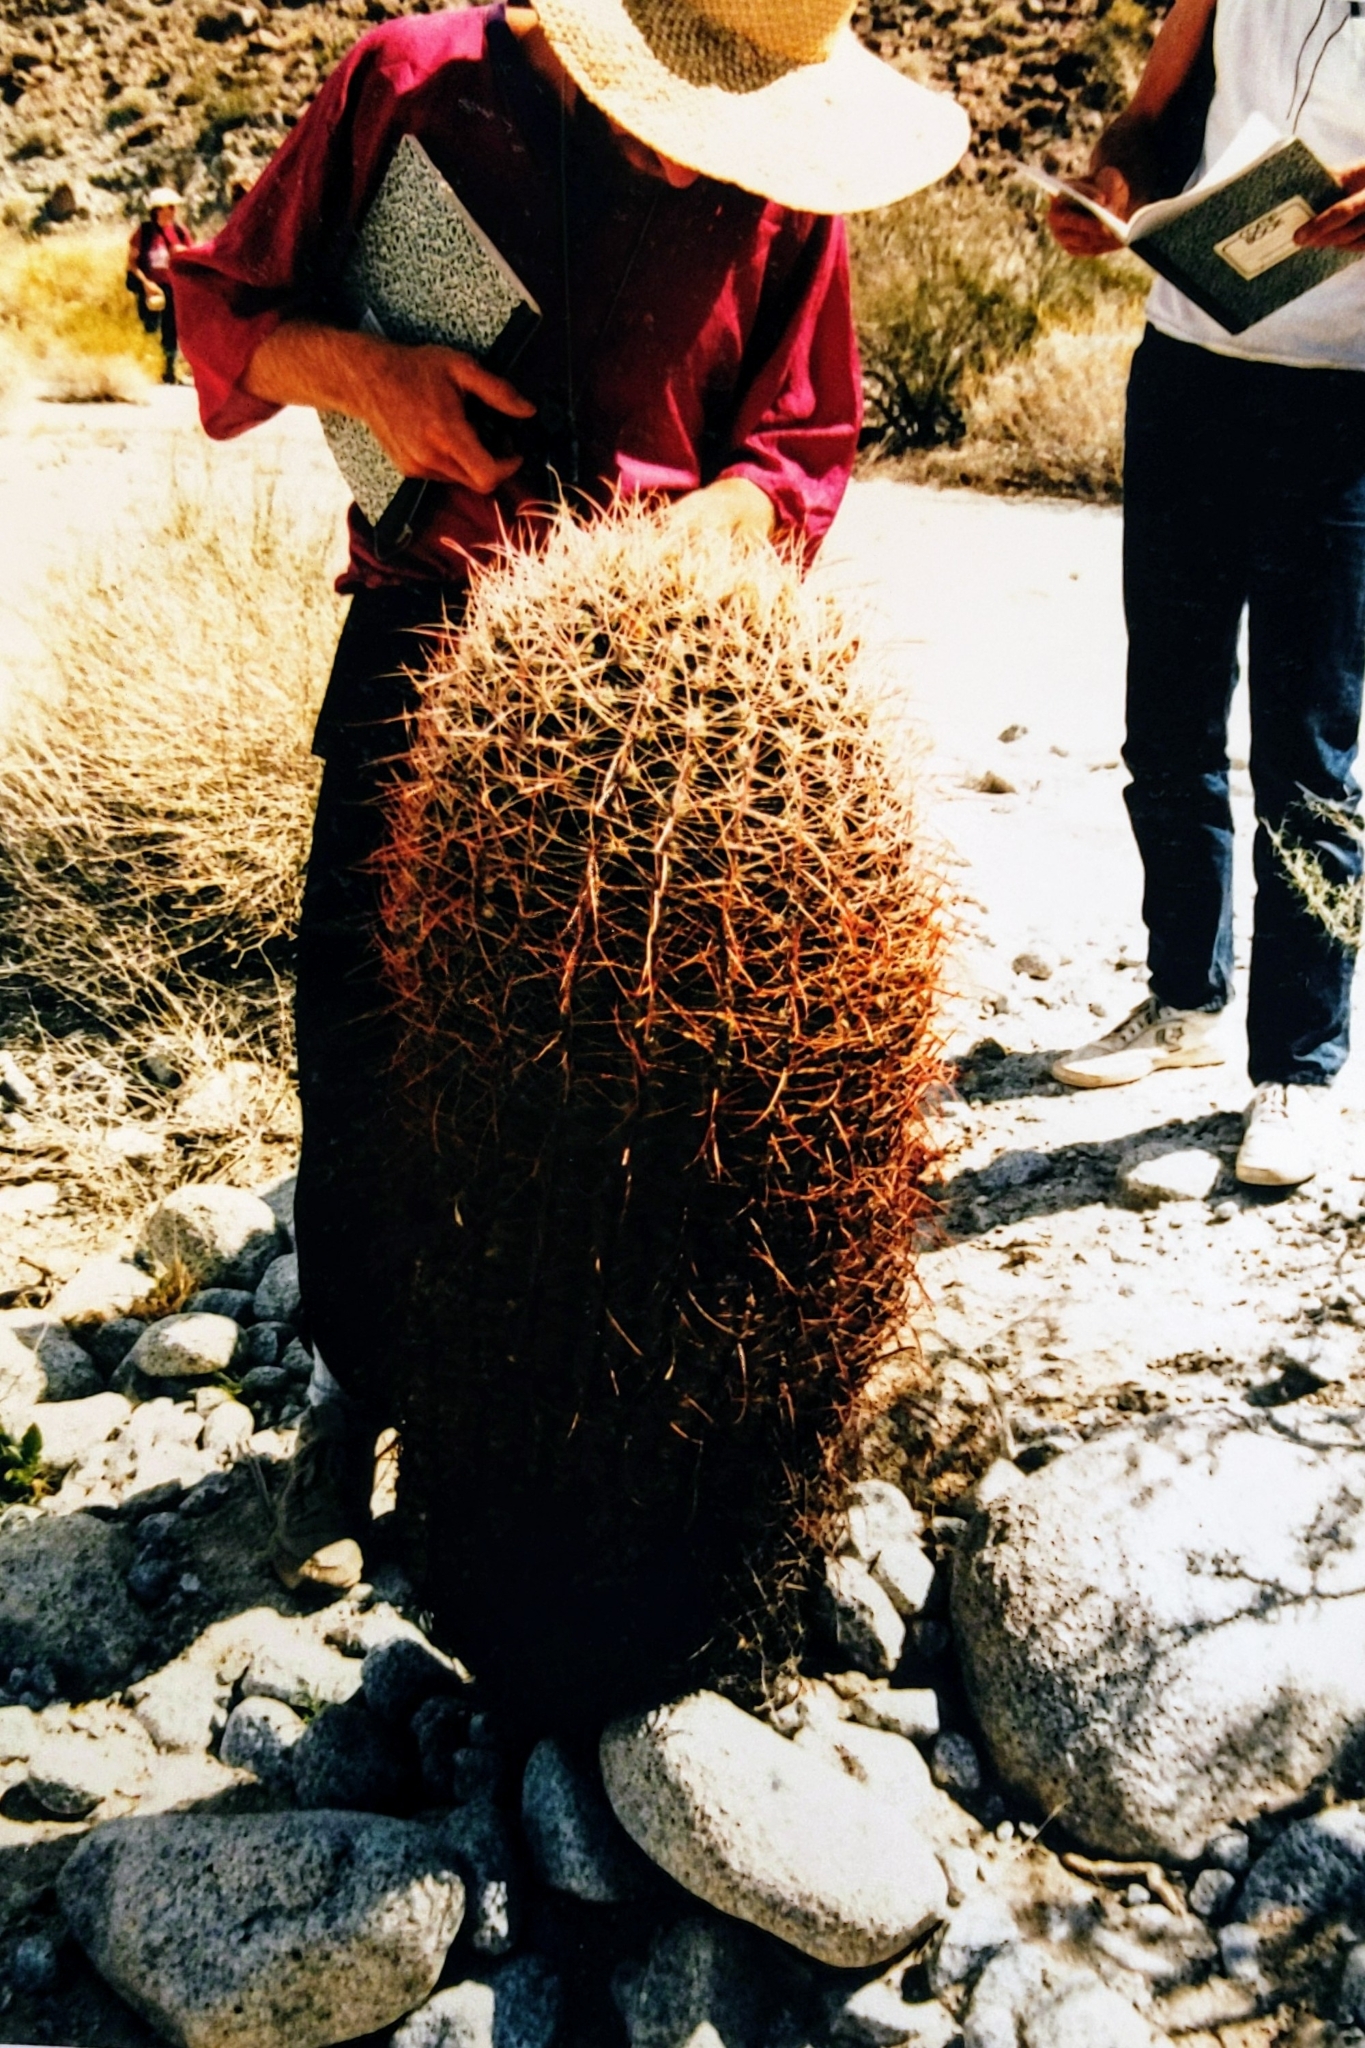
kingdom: Plantae
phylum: Tracheophyta
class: Magnoliopsida
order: Caryophyllales
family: Cactaceae
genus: Ferocactus
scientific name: Ferocactus cylindraceus
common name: California barrel cactus
